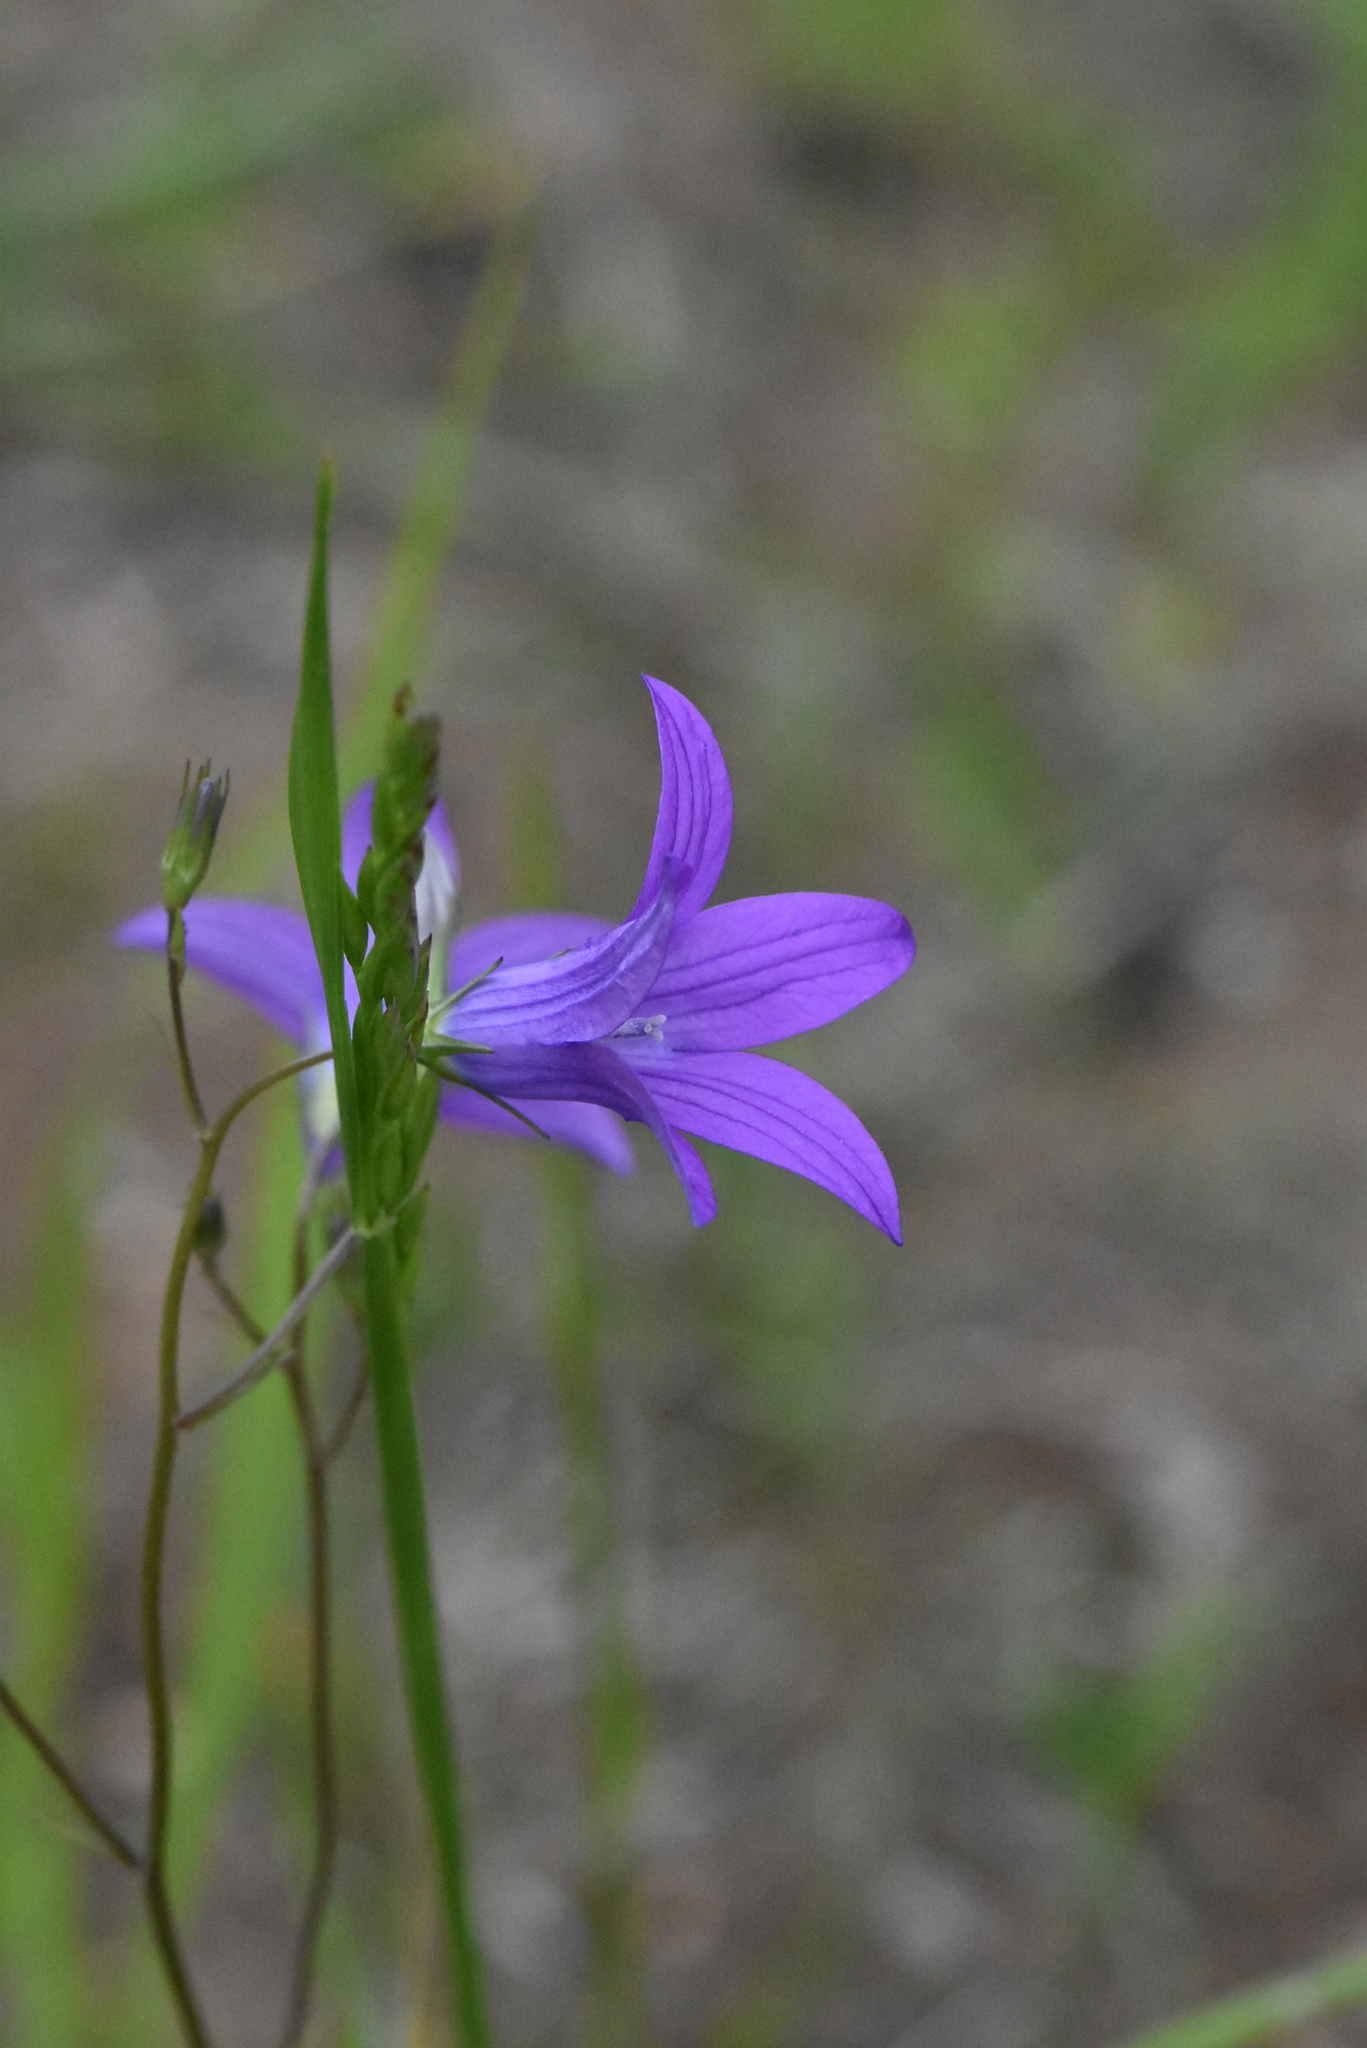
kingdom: Plantae
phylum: Tracheophyta
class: Magnoliopsida
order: Asterales
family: Campanulaceae
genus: Campanula
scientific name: Campanula patula
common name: Spreading bellflower
